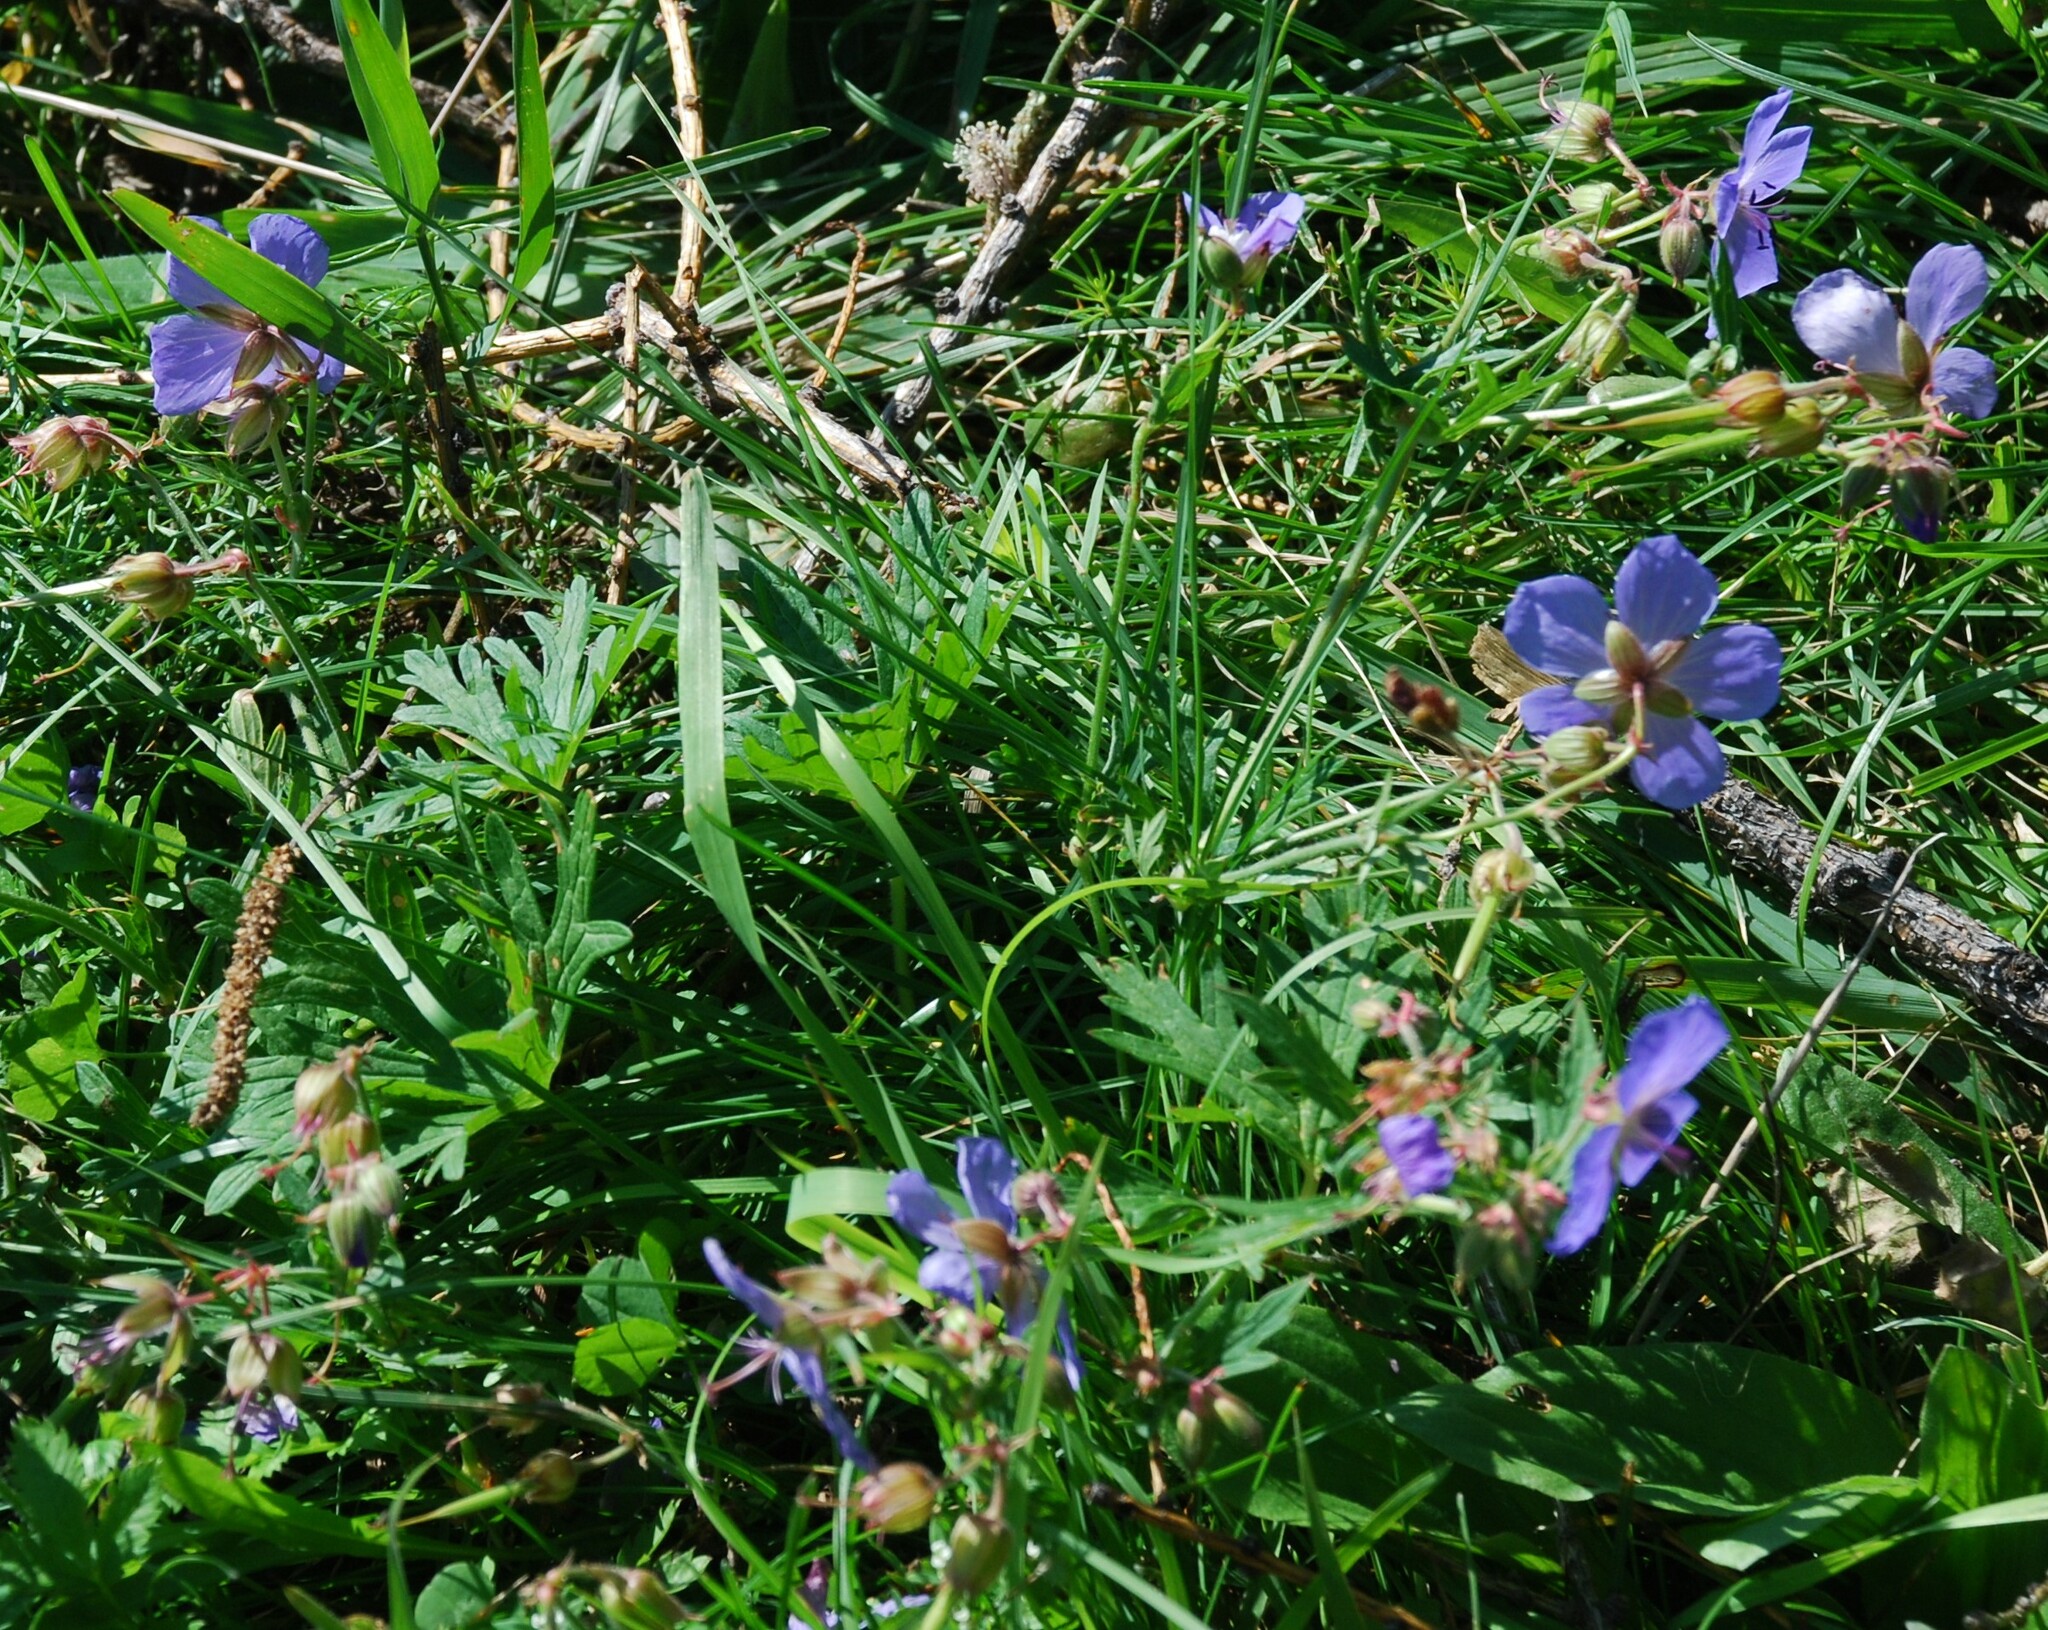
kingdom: Plantae
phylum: Tracheophyta
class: Magnoliopsida
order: Geraniales
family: Geraniaceae
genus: Geranium
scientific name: Geranium pratense
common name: Meadow crane's-bill
